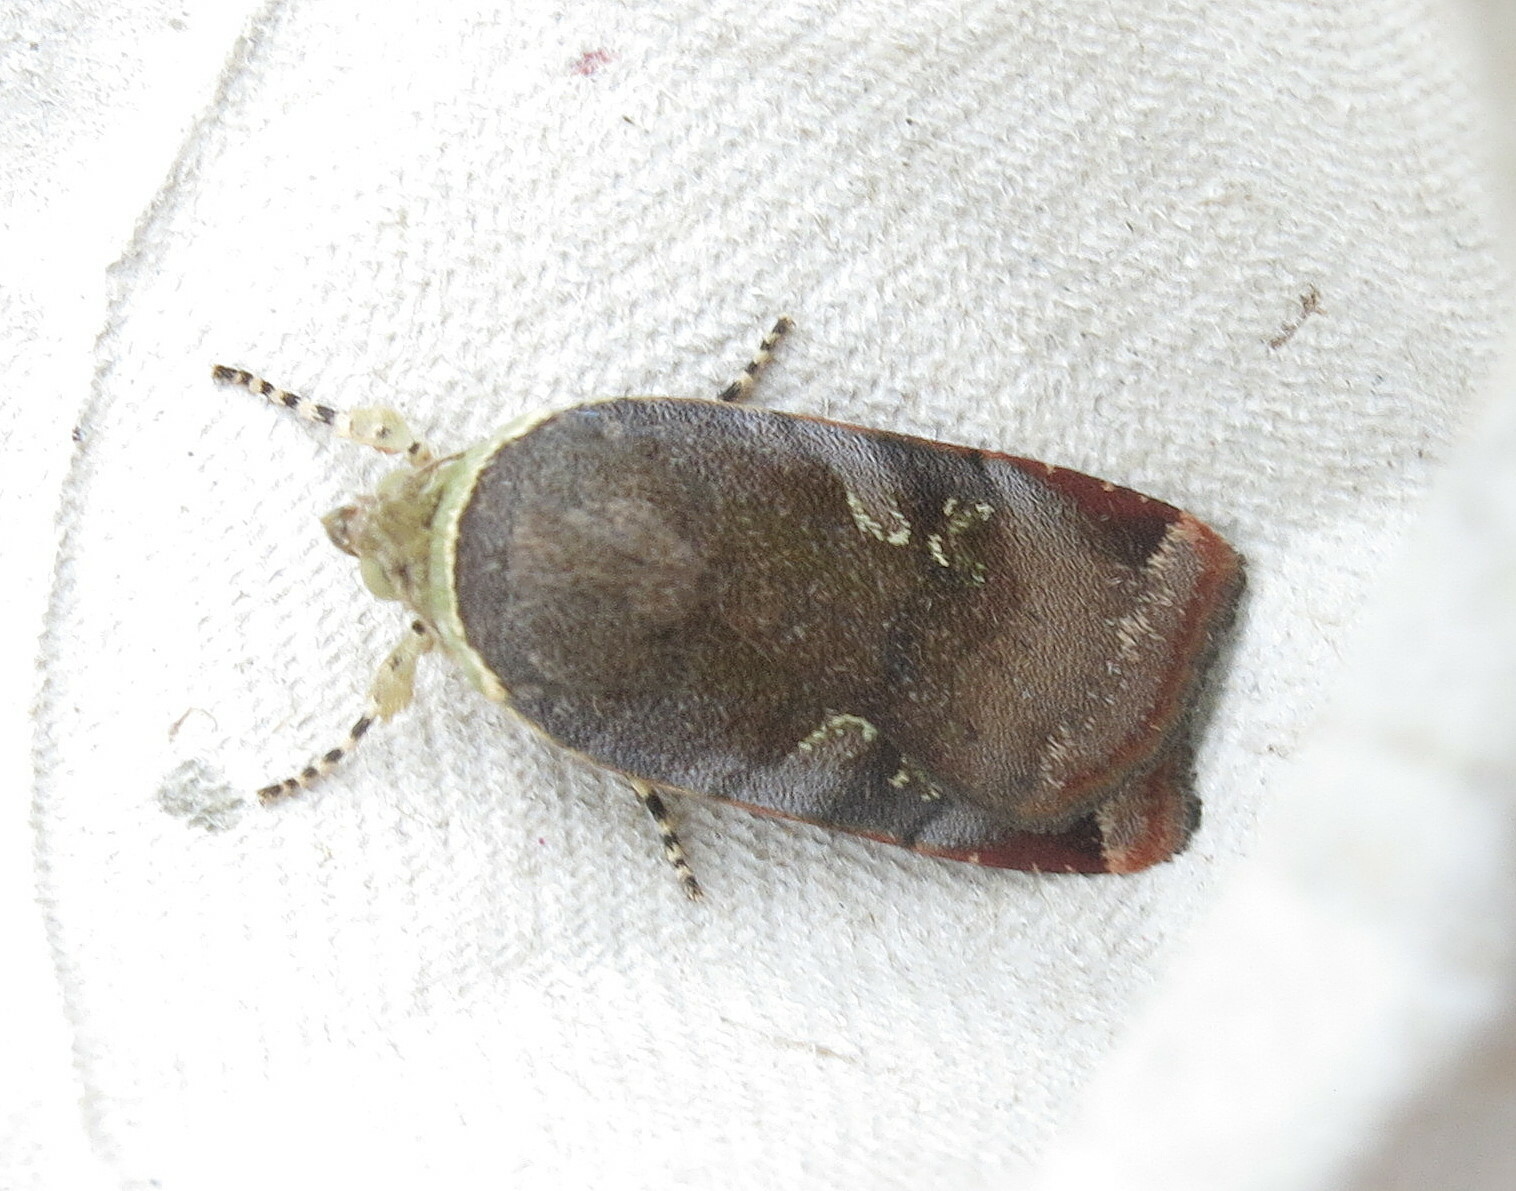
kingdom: Animalia
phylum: Arthropoda
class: Insecta
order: Lepidoptera
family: Noctuidae
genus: Noctua
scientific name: Noctua janthe
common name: Lesser broad-bordered yellow underwing
